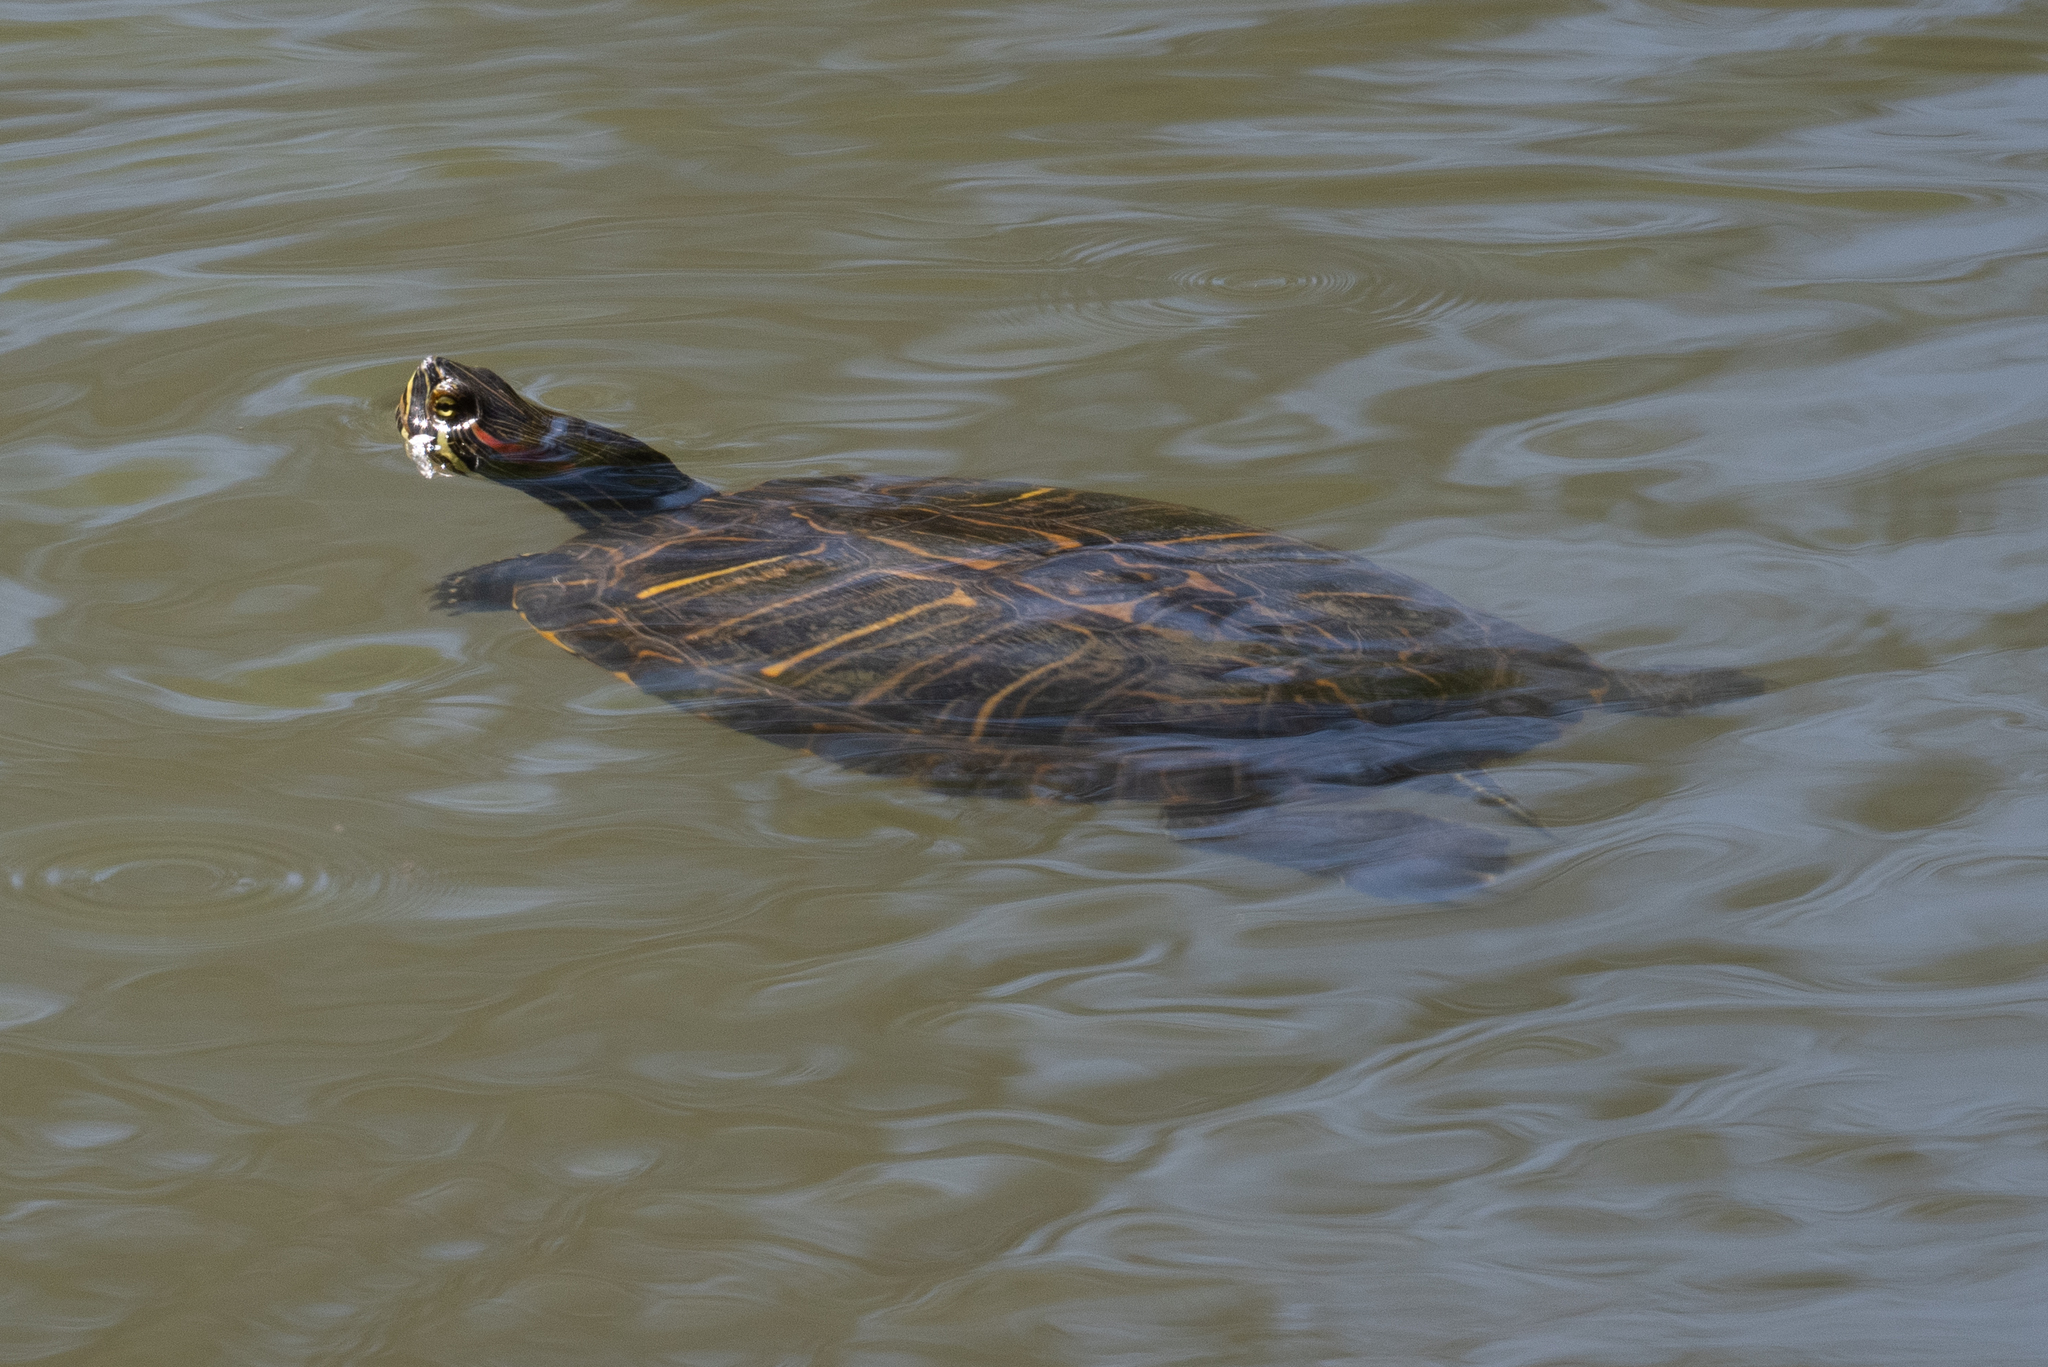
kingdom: Animalia
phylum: Chordata
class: Testudines
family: Emydidae
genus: Trachemys
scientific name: Trachemys scripta
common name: Slider
